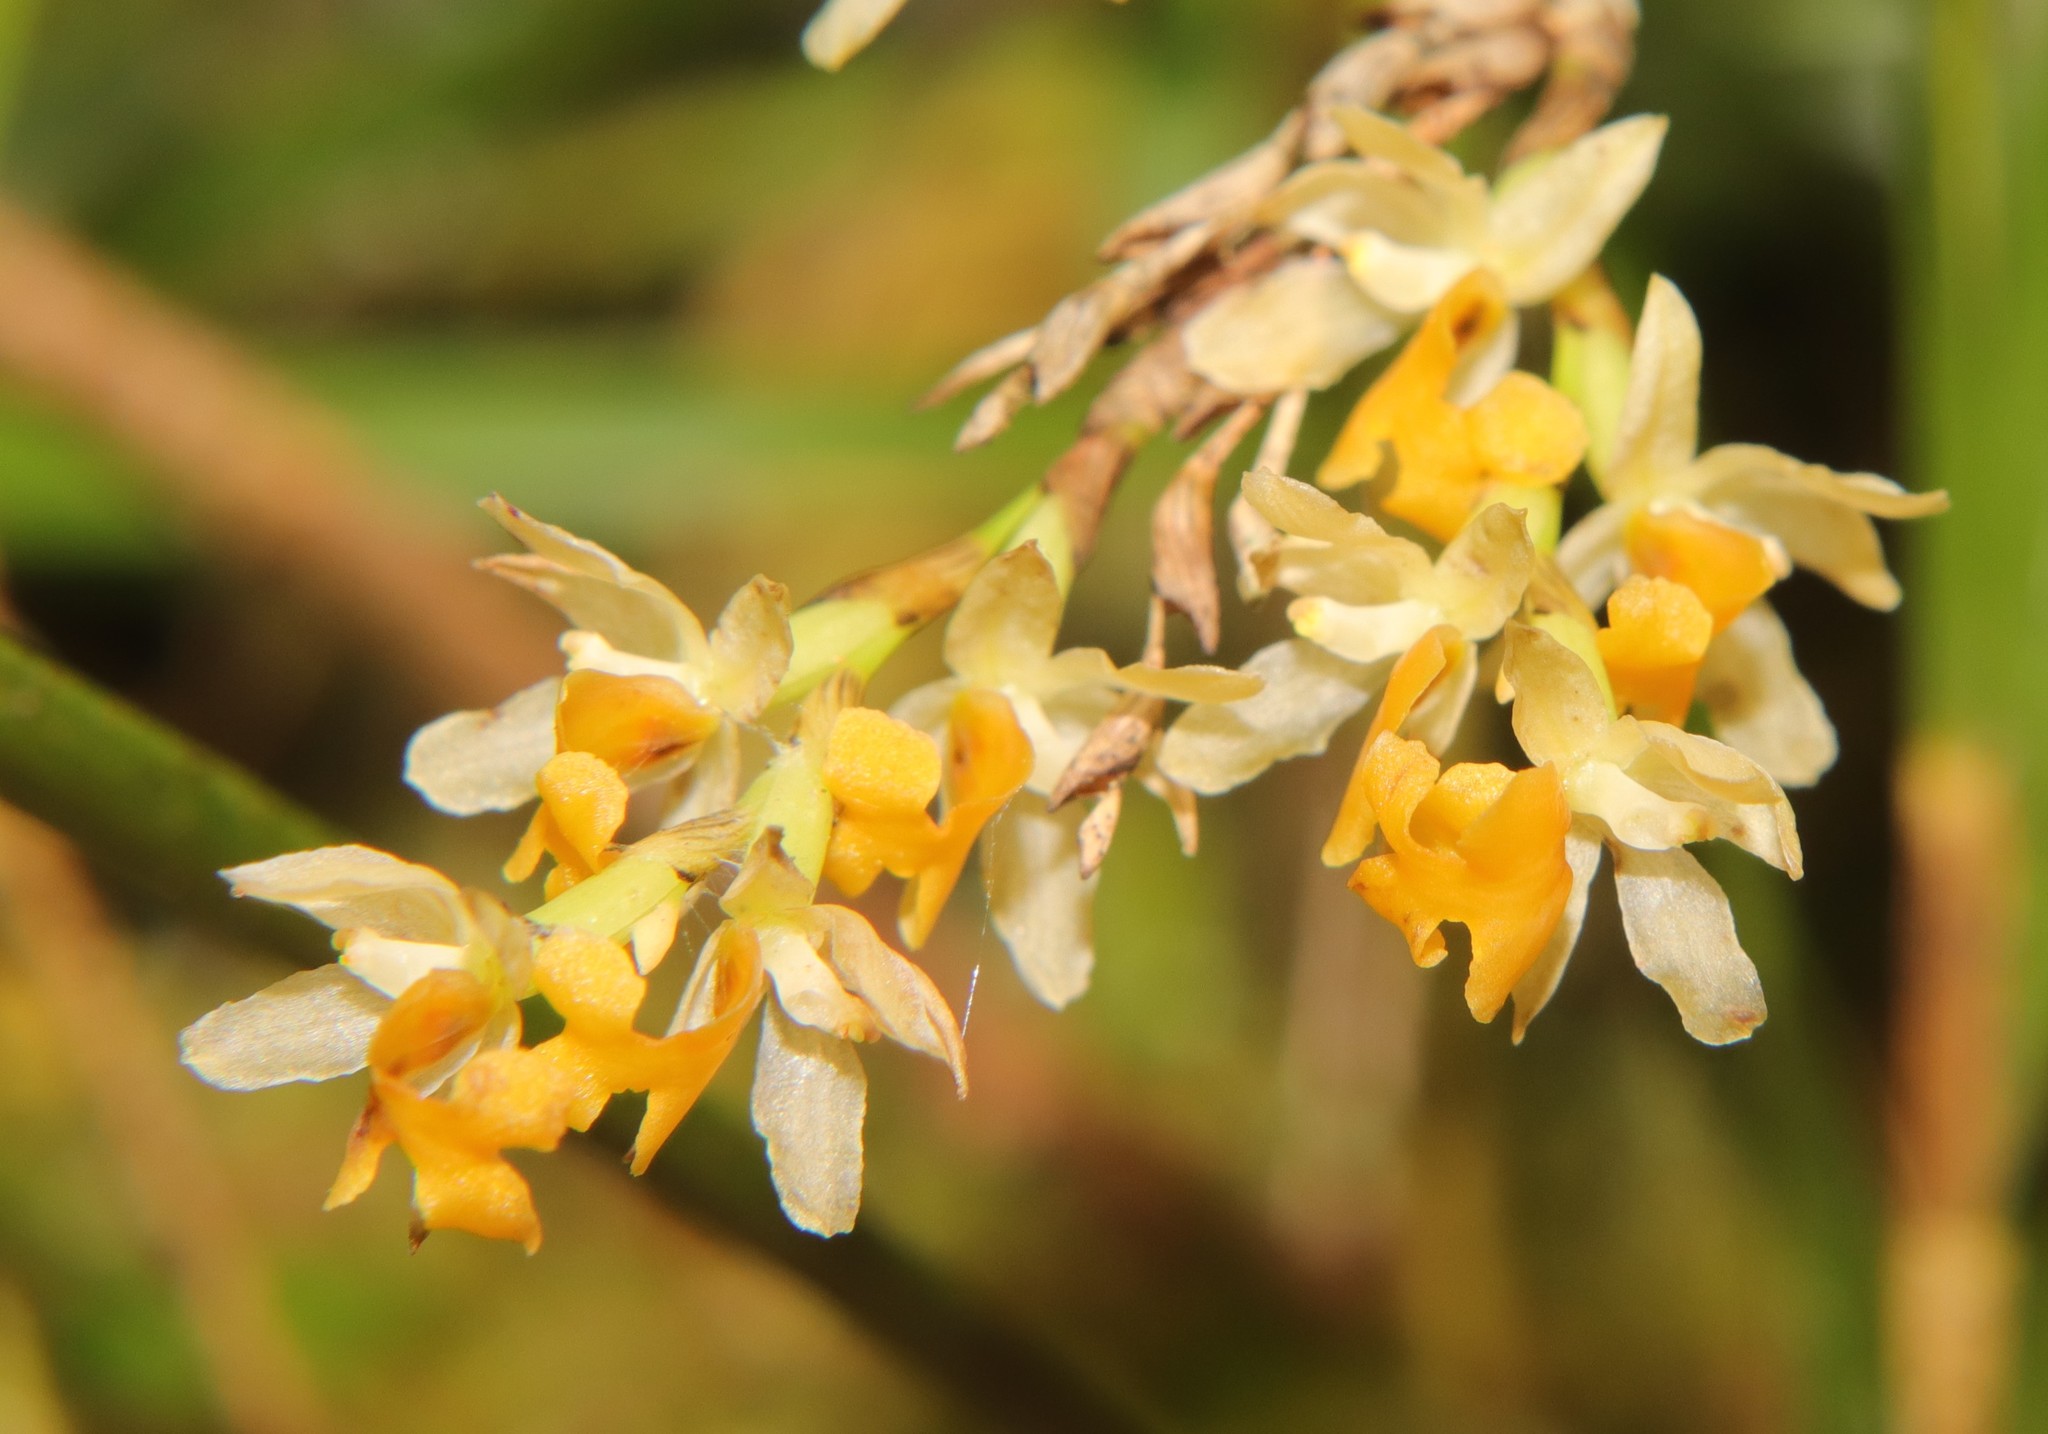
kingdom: Plantae
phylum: Tracheophyta
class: Liliopsida
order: Asparagales
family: Orchidaceae
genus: Earina
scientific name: Earina mucronata
